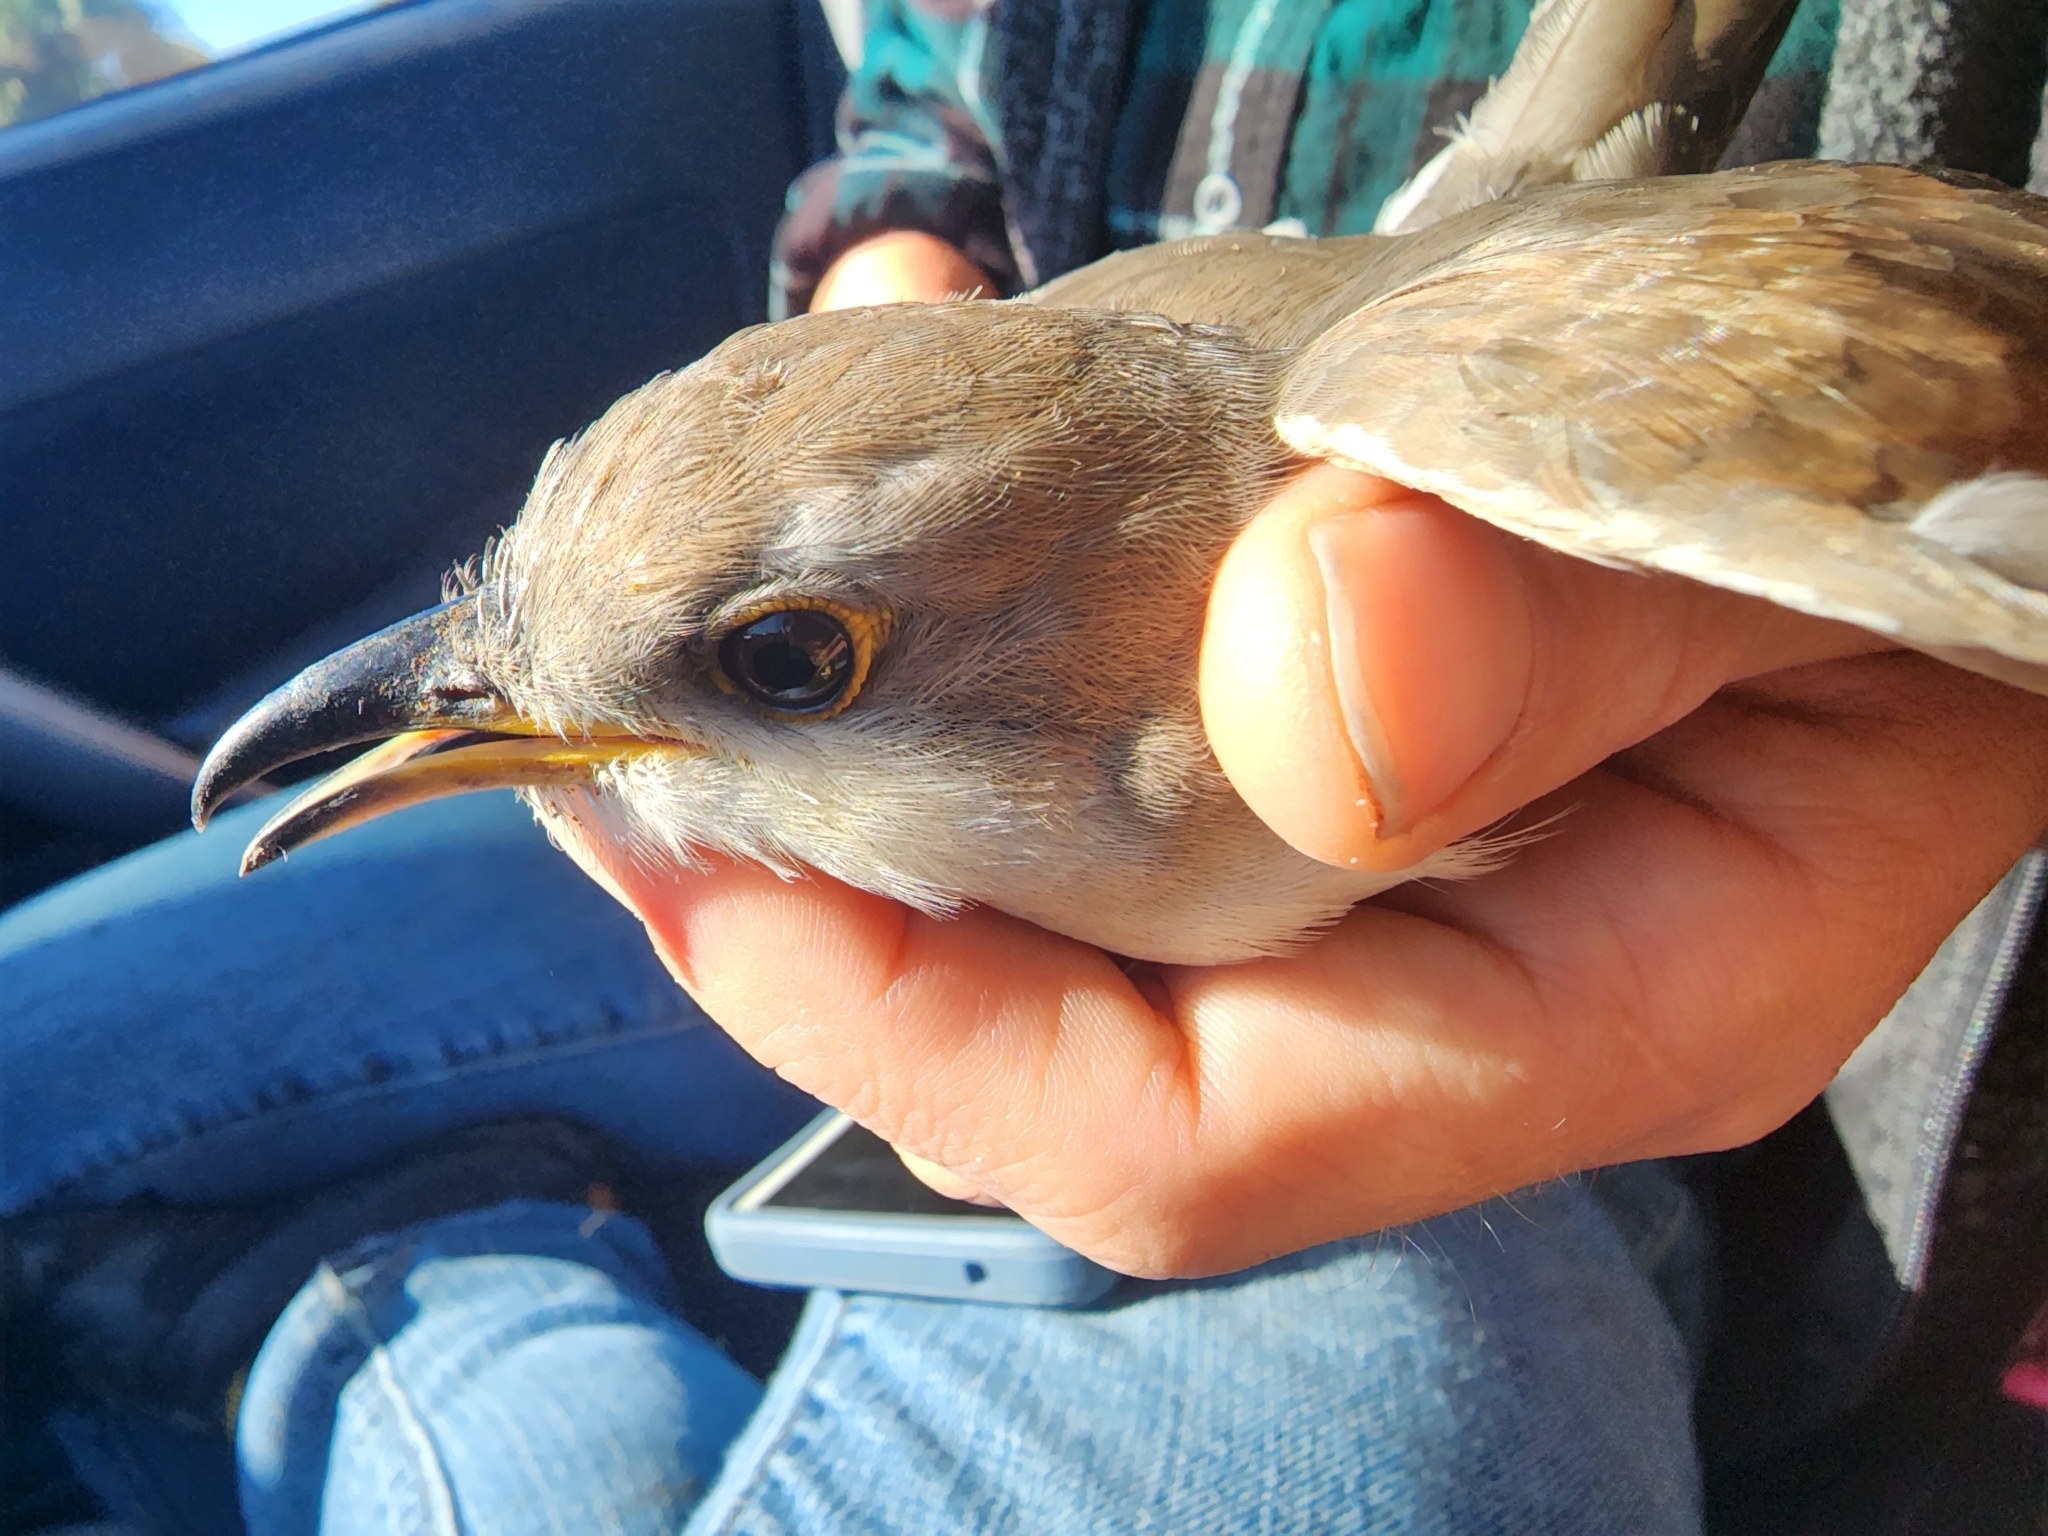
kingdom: Animalia
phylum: Chordata
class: Aves
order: Cuculiformes
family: Cuculidae
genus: Coccyzus
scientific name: Coccyzus americanus
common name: Yellow-billed cuckoo
